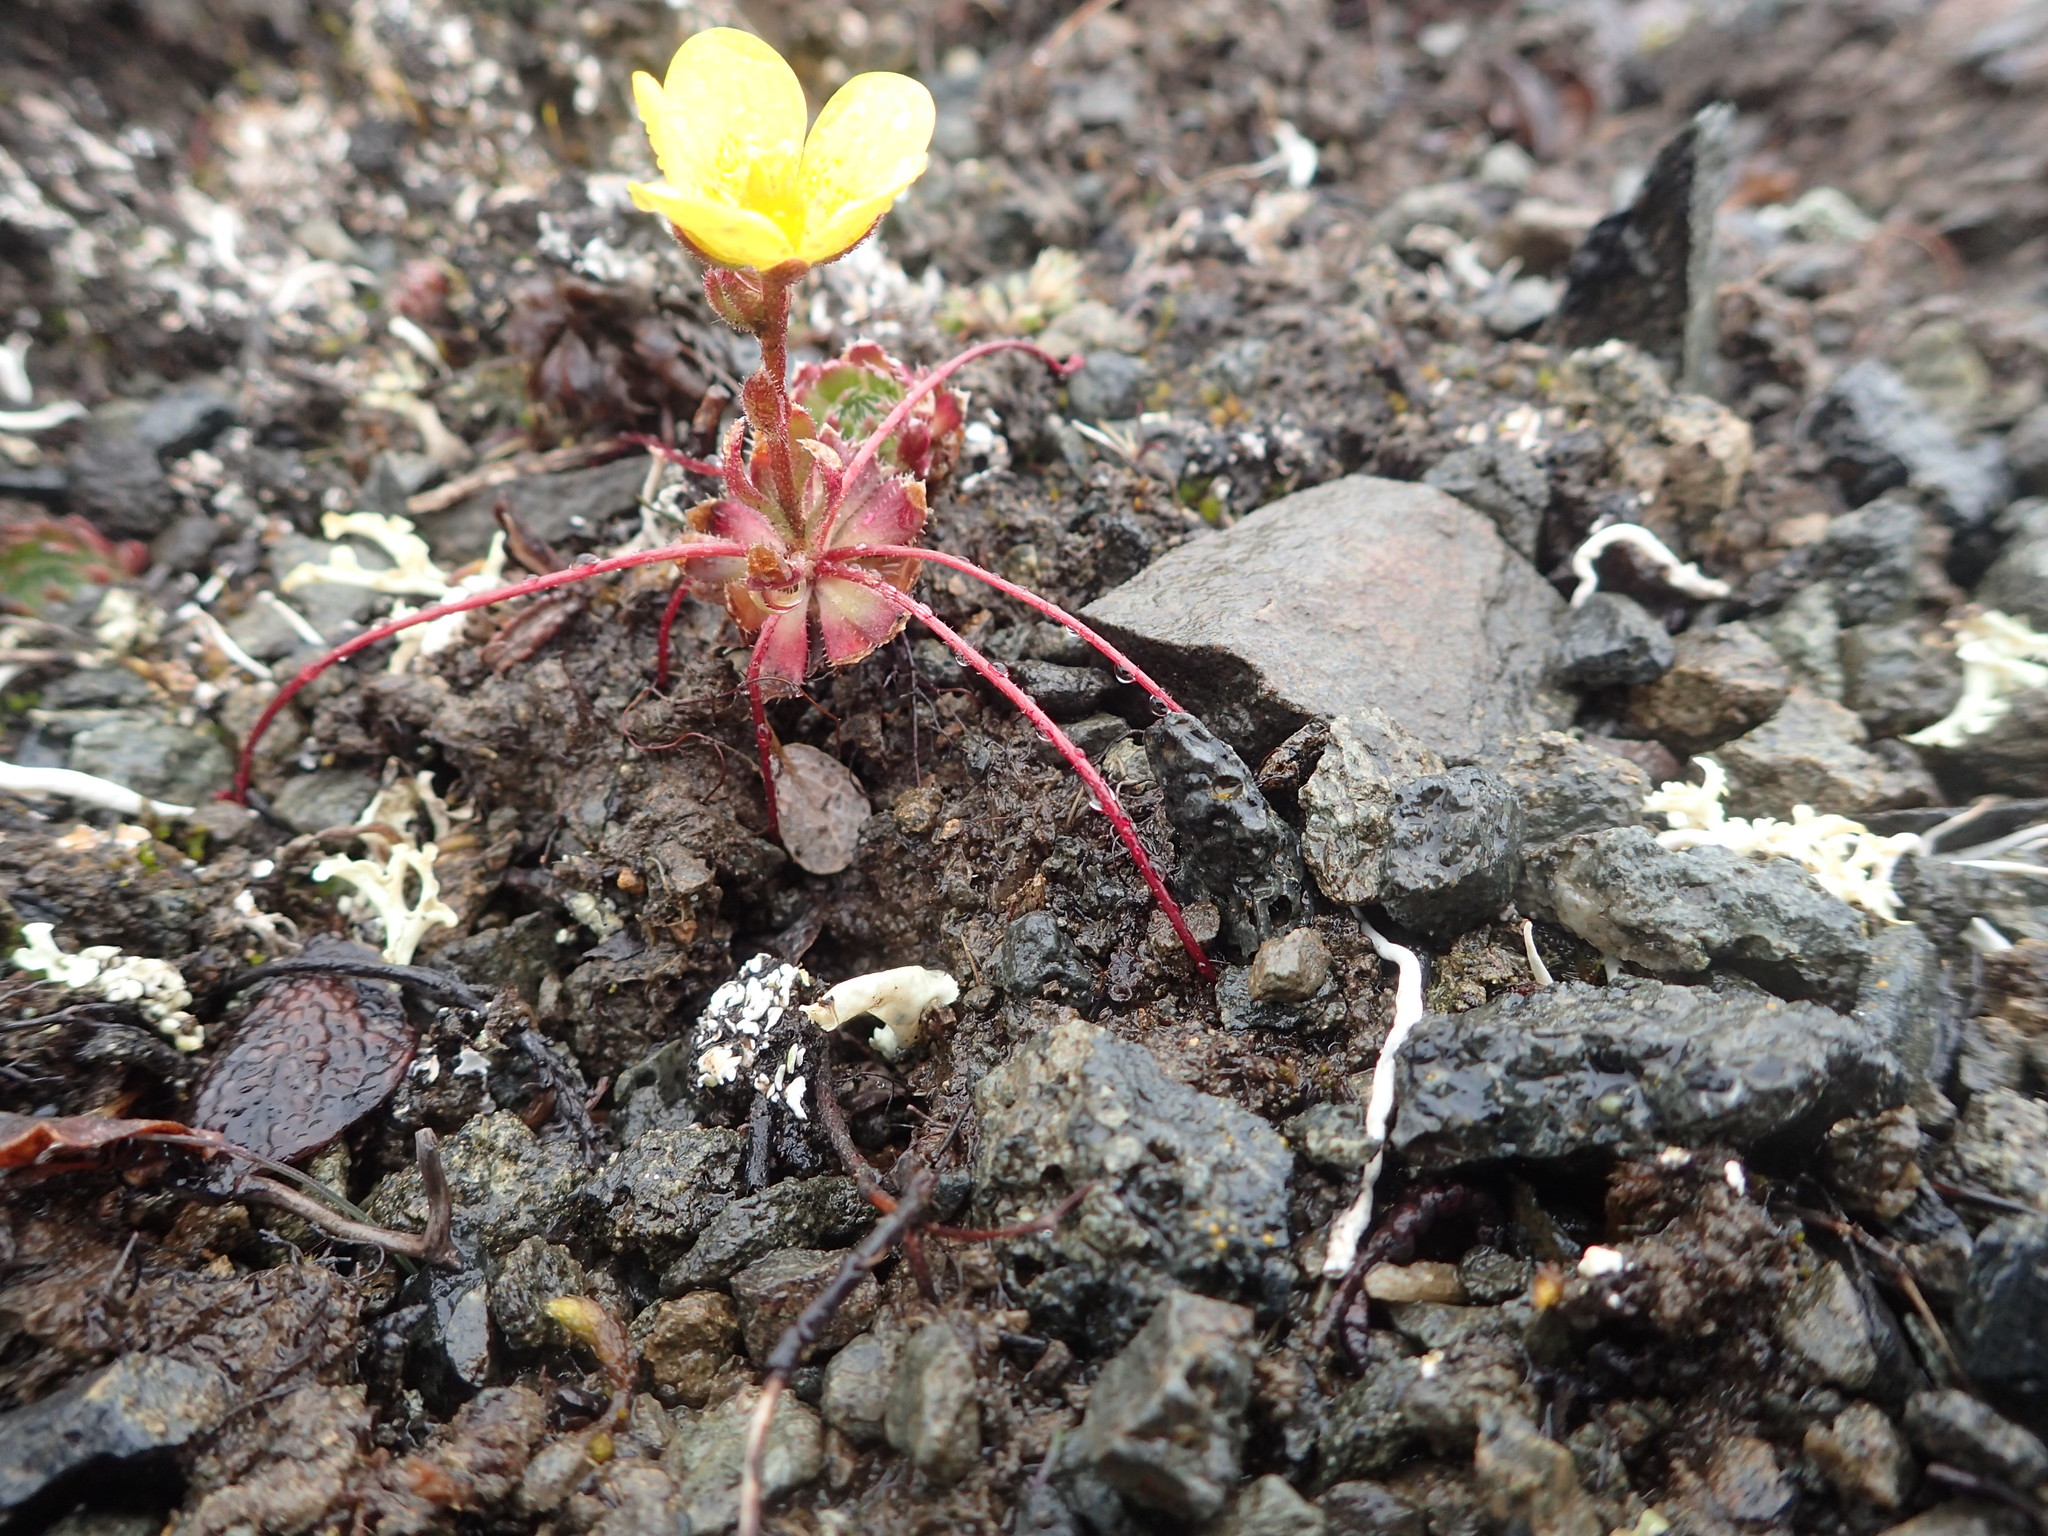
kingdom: Plantae
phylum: Tracheophyta
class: Magnoliopsida
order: Saxifragales
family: Saxifragaceae
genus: Saxifraga
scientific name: Saxifraga flagellaris
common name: Spider saxifrage
